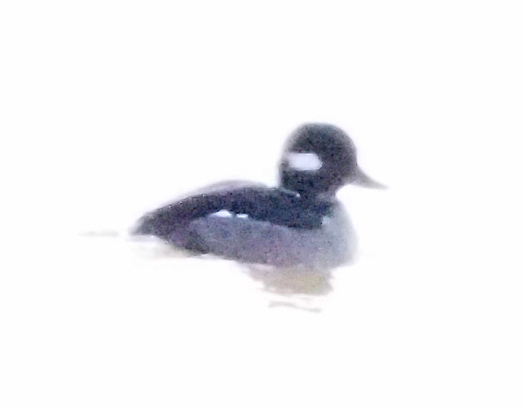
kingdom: Animalia
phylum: Chordata
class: Aves
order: Anseriformes
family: Anatidae
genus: Bucephala
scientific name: Bucephala albeola
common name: Bufflehead
